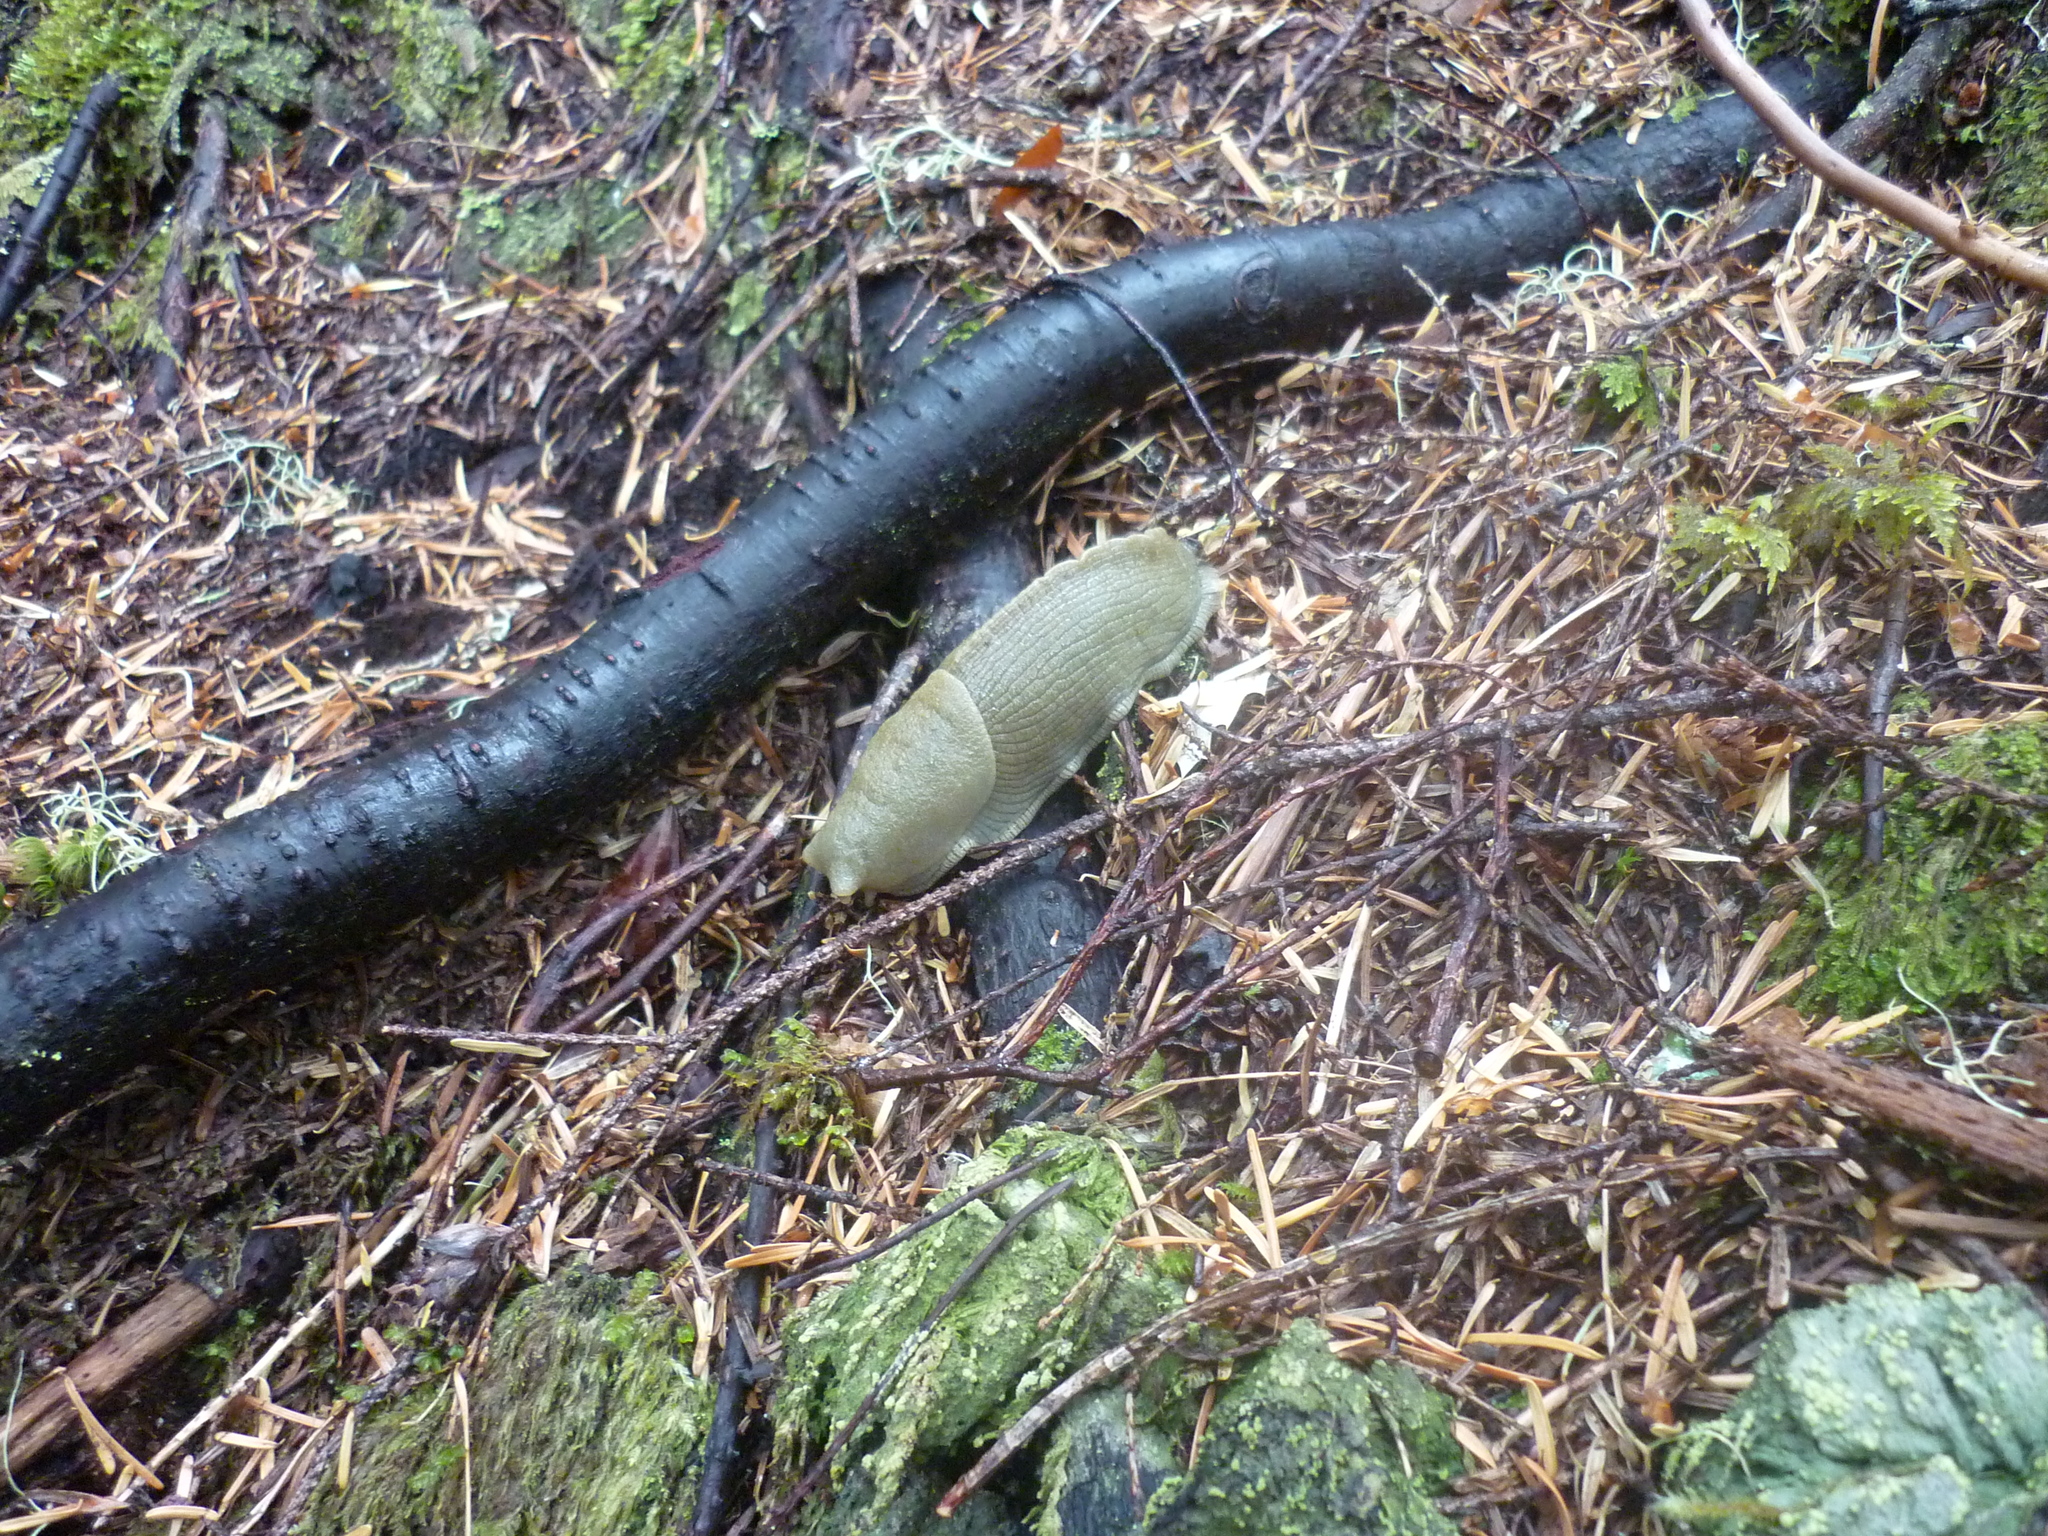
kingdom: Animalia
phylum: Mollusca
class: Gastropoda
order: Stylommatophora
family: Ariolimacidae
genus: Ariolimax
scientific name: Ariolimax columbianus
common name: Pacific banana slug
